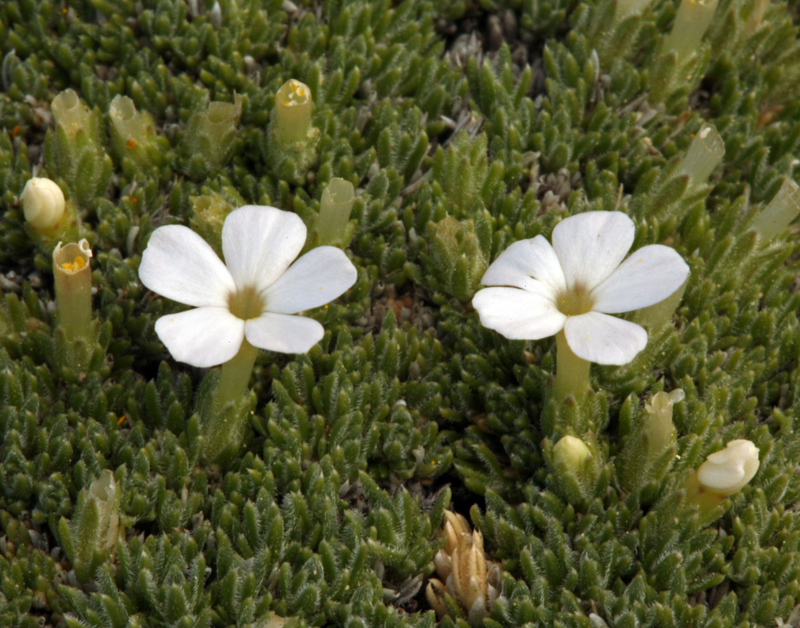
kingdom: Plantae
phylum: Tracheophyta
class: Magnoliopsida
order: Ericales
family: Polemoniaceae
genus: Phlox
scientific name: Phlox condensata
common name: Compact phlox
